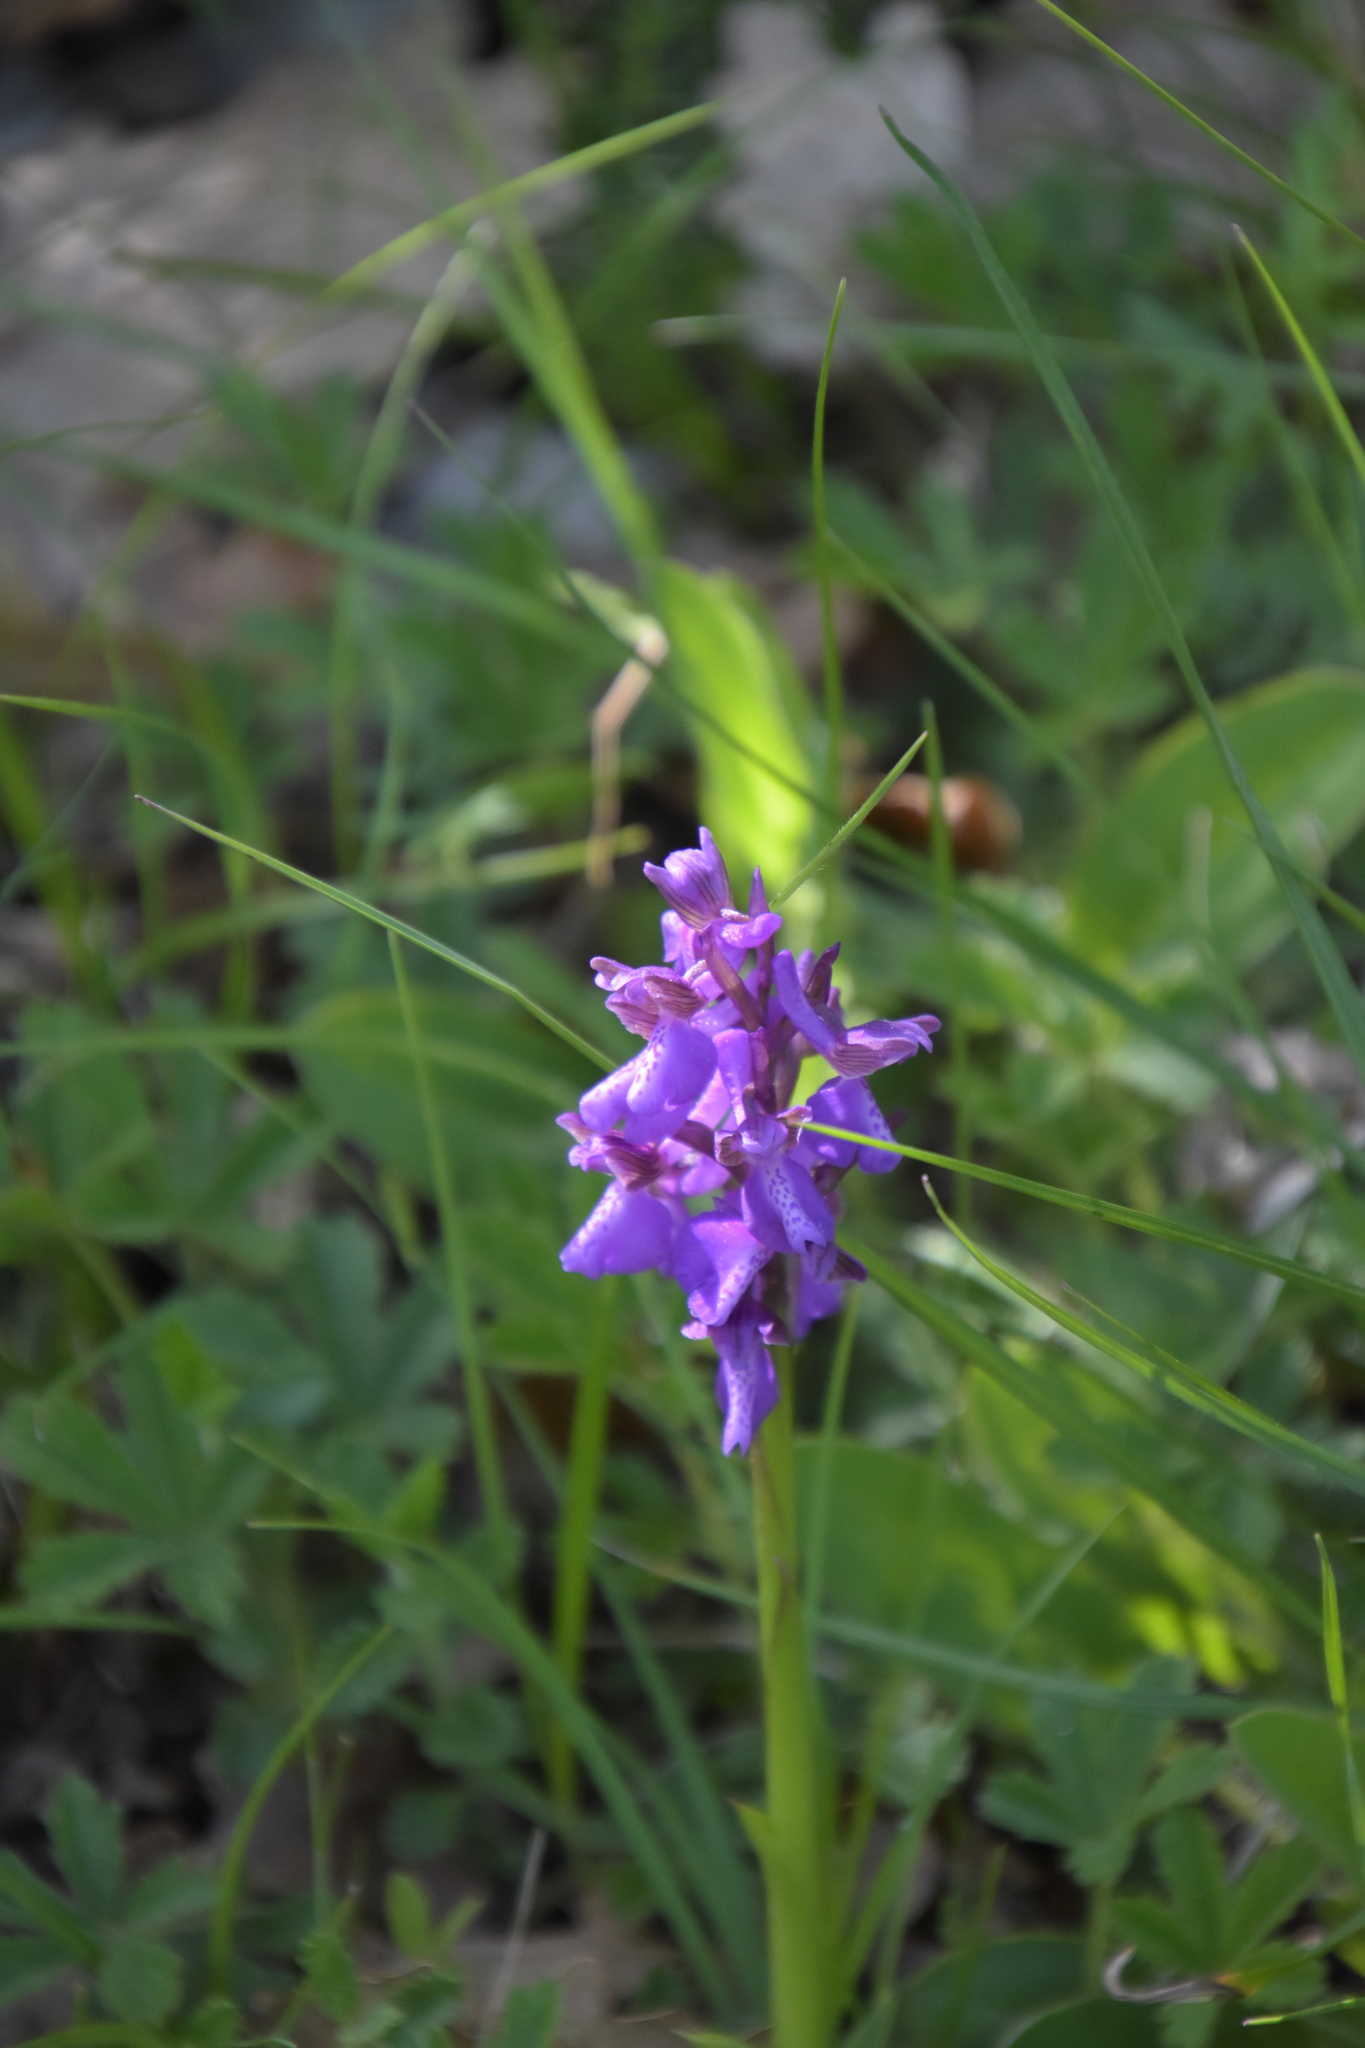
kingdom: Plantae
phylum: Tracheophyta
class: Liliopsida
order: Asparagales
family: Orchidaceae
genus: Anacamptis
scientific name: Anacamptis morio
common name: Green-winged orchid
